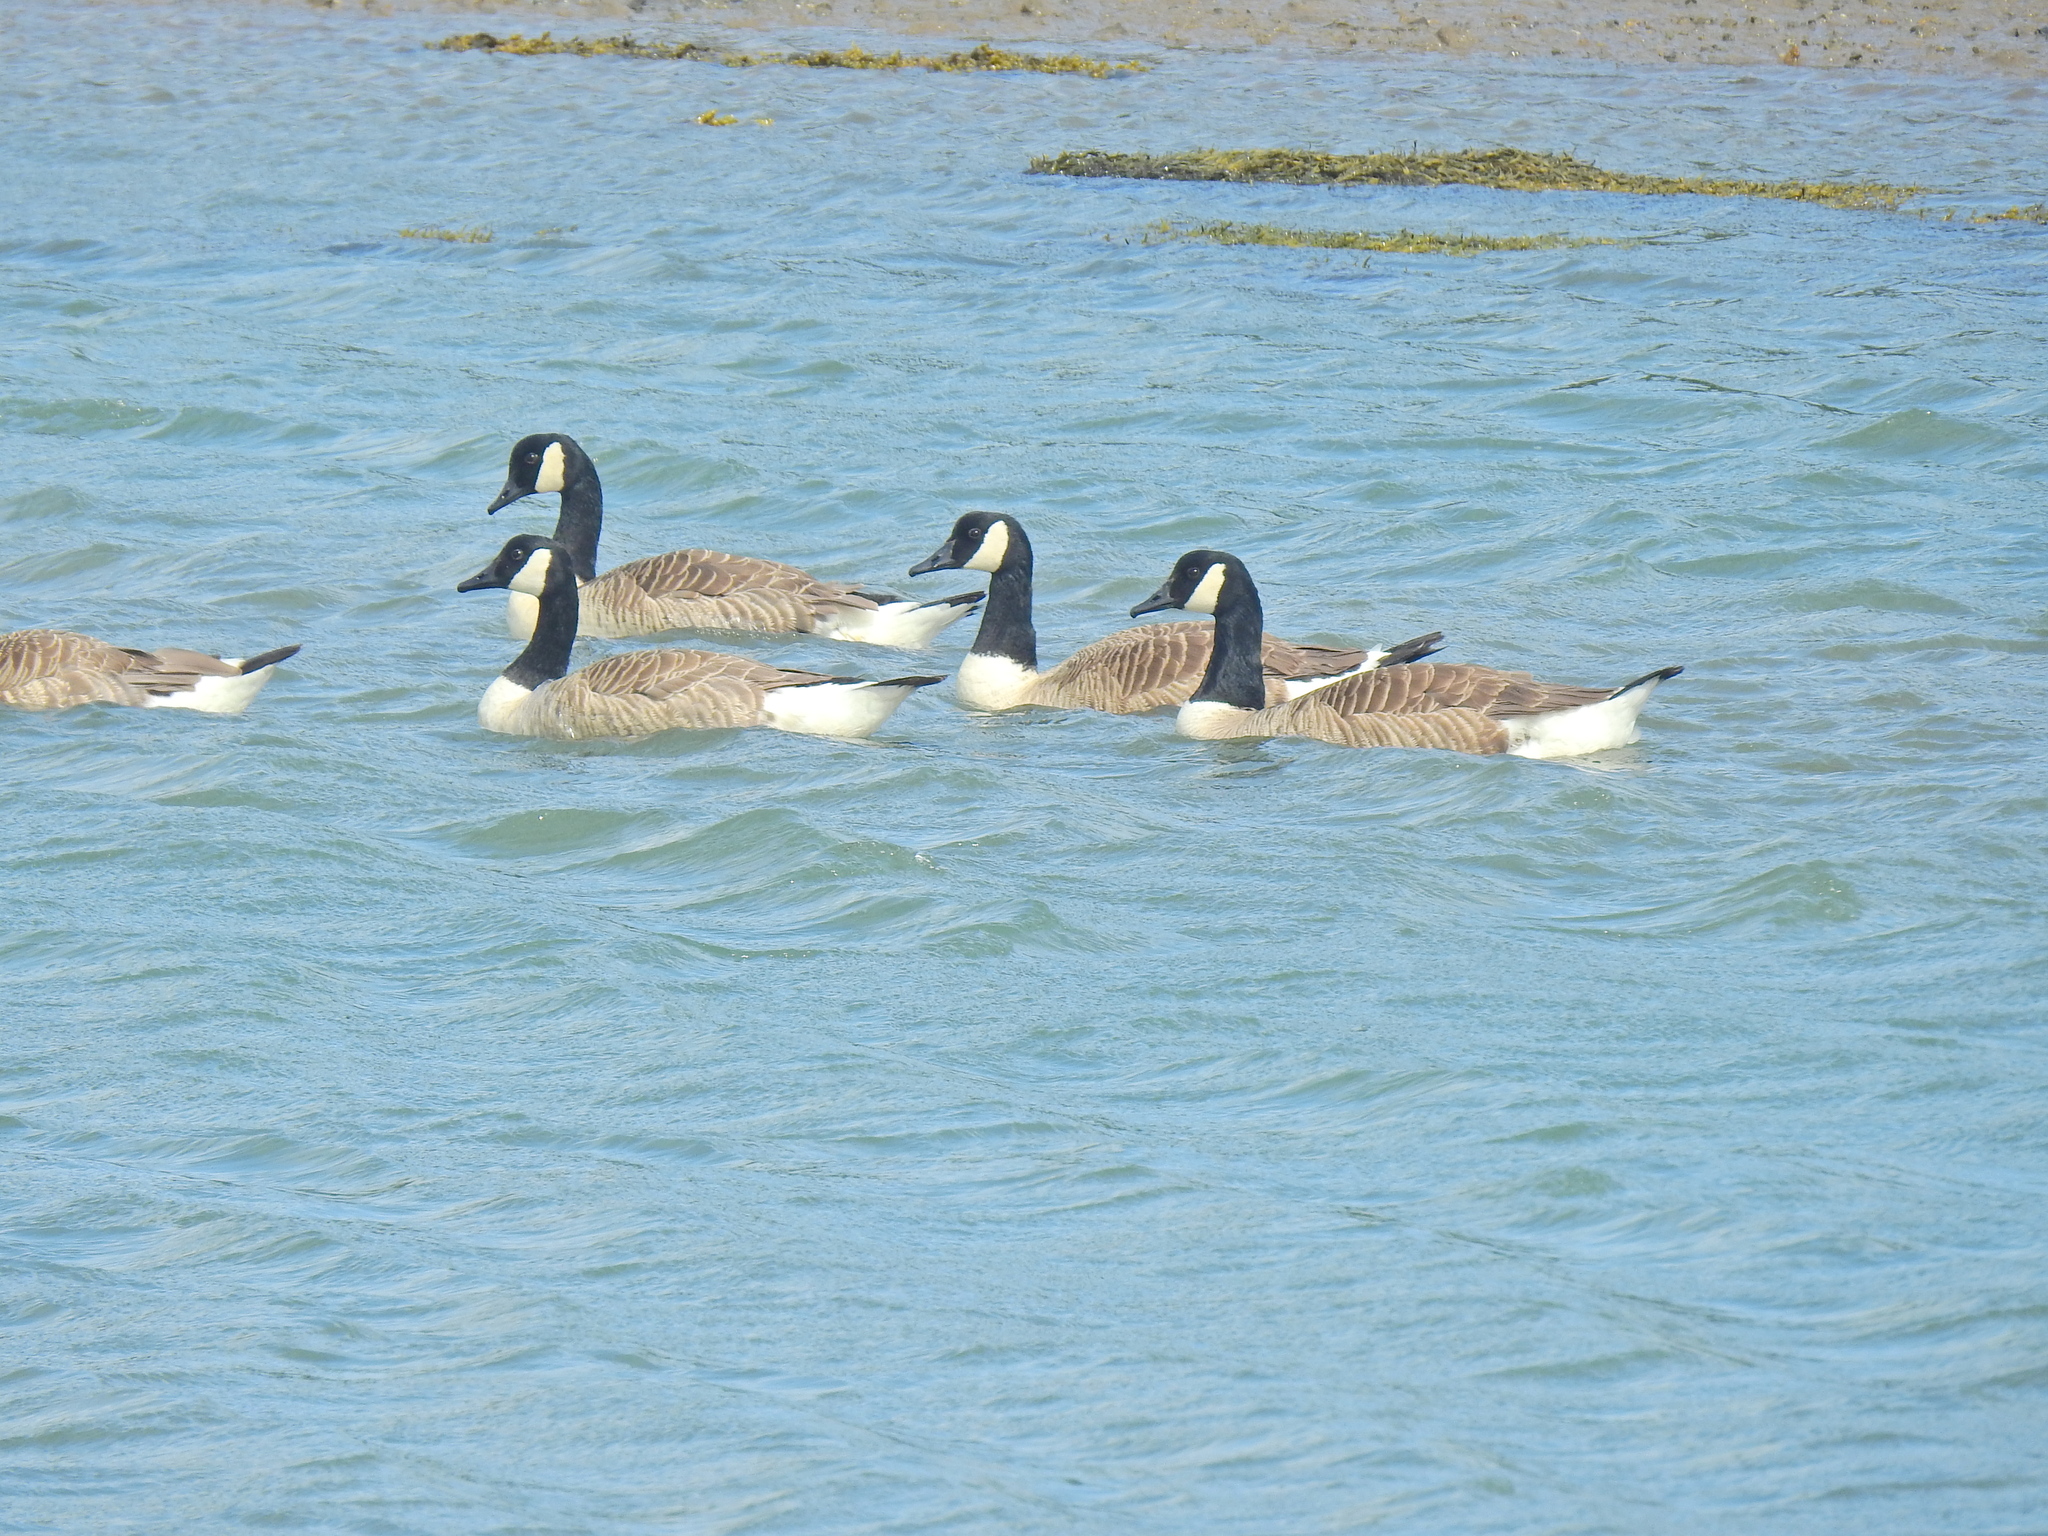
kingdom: Animalia
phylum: Chordata
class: Aves
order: Anseriformes
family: Anatidae
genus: Branta
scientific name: Branta canadensis
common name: Canada goose
